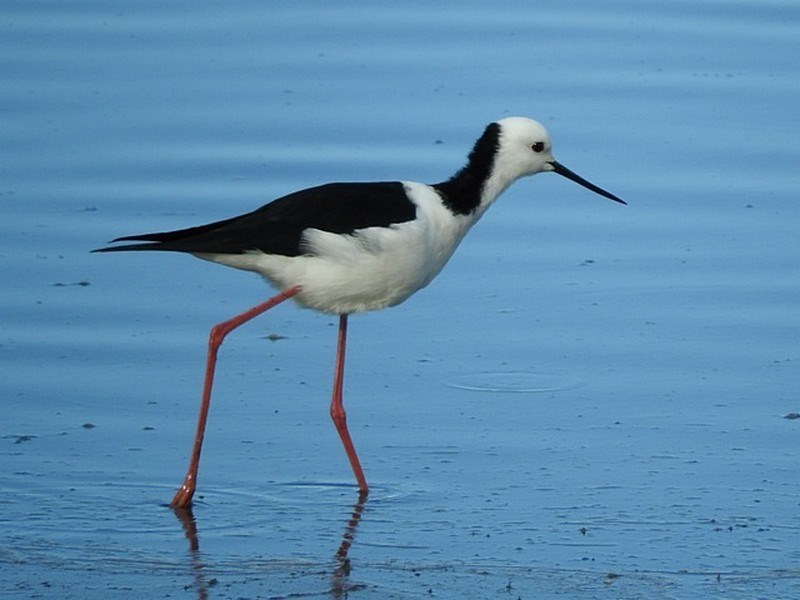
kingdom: Animalia
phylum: Chordata
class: Aves
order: Charadriiformes
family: Recurvirostridae
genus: Himantopus
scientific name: Himantopus leucocephalus
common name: White-headed stilt
